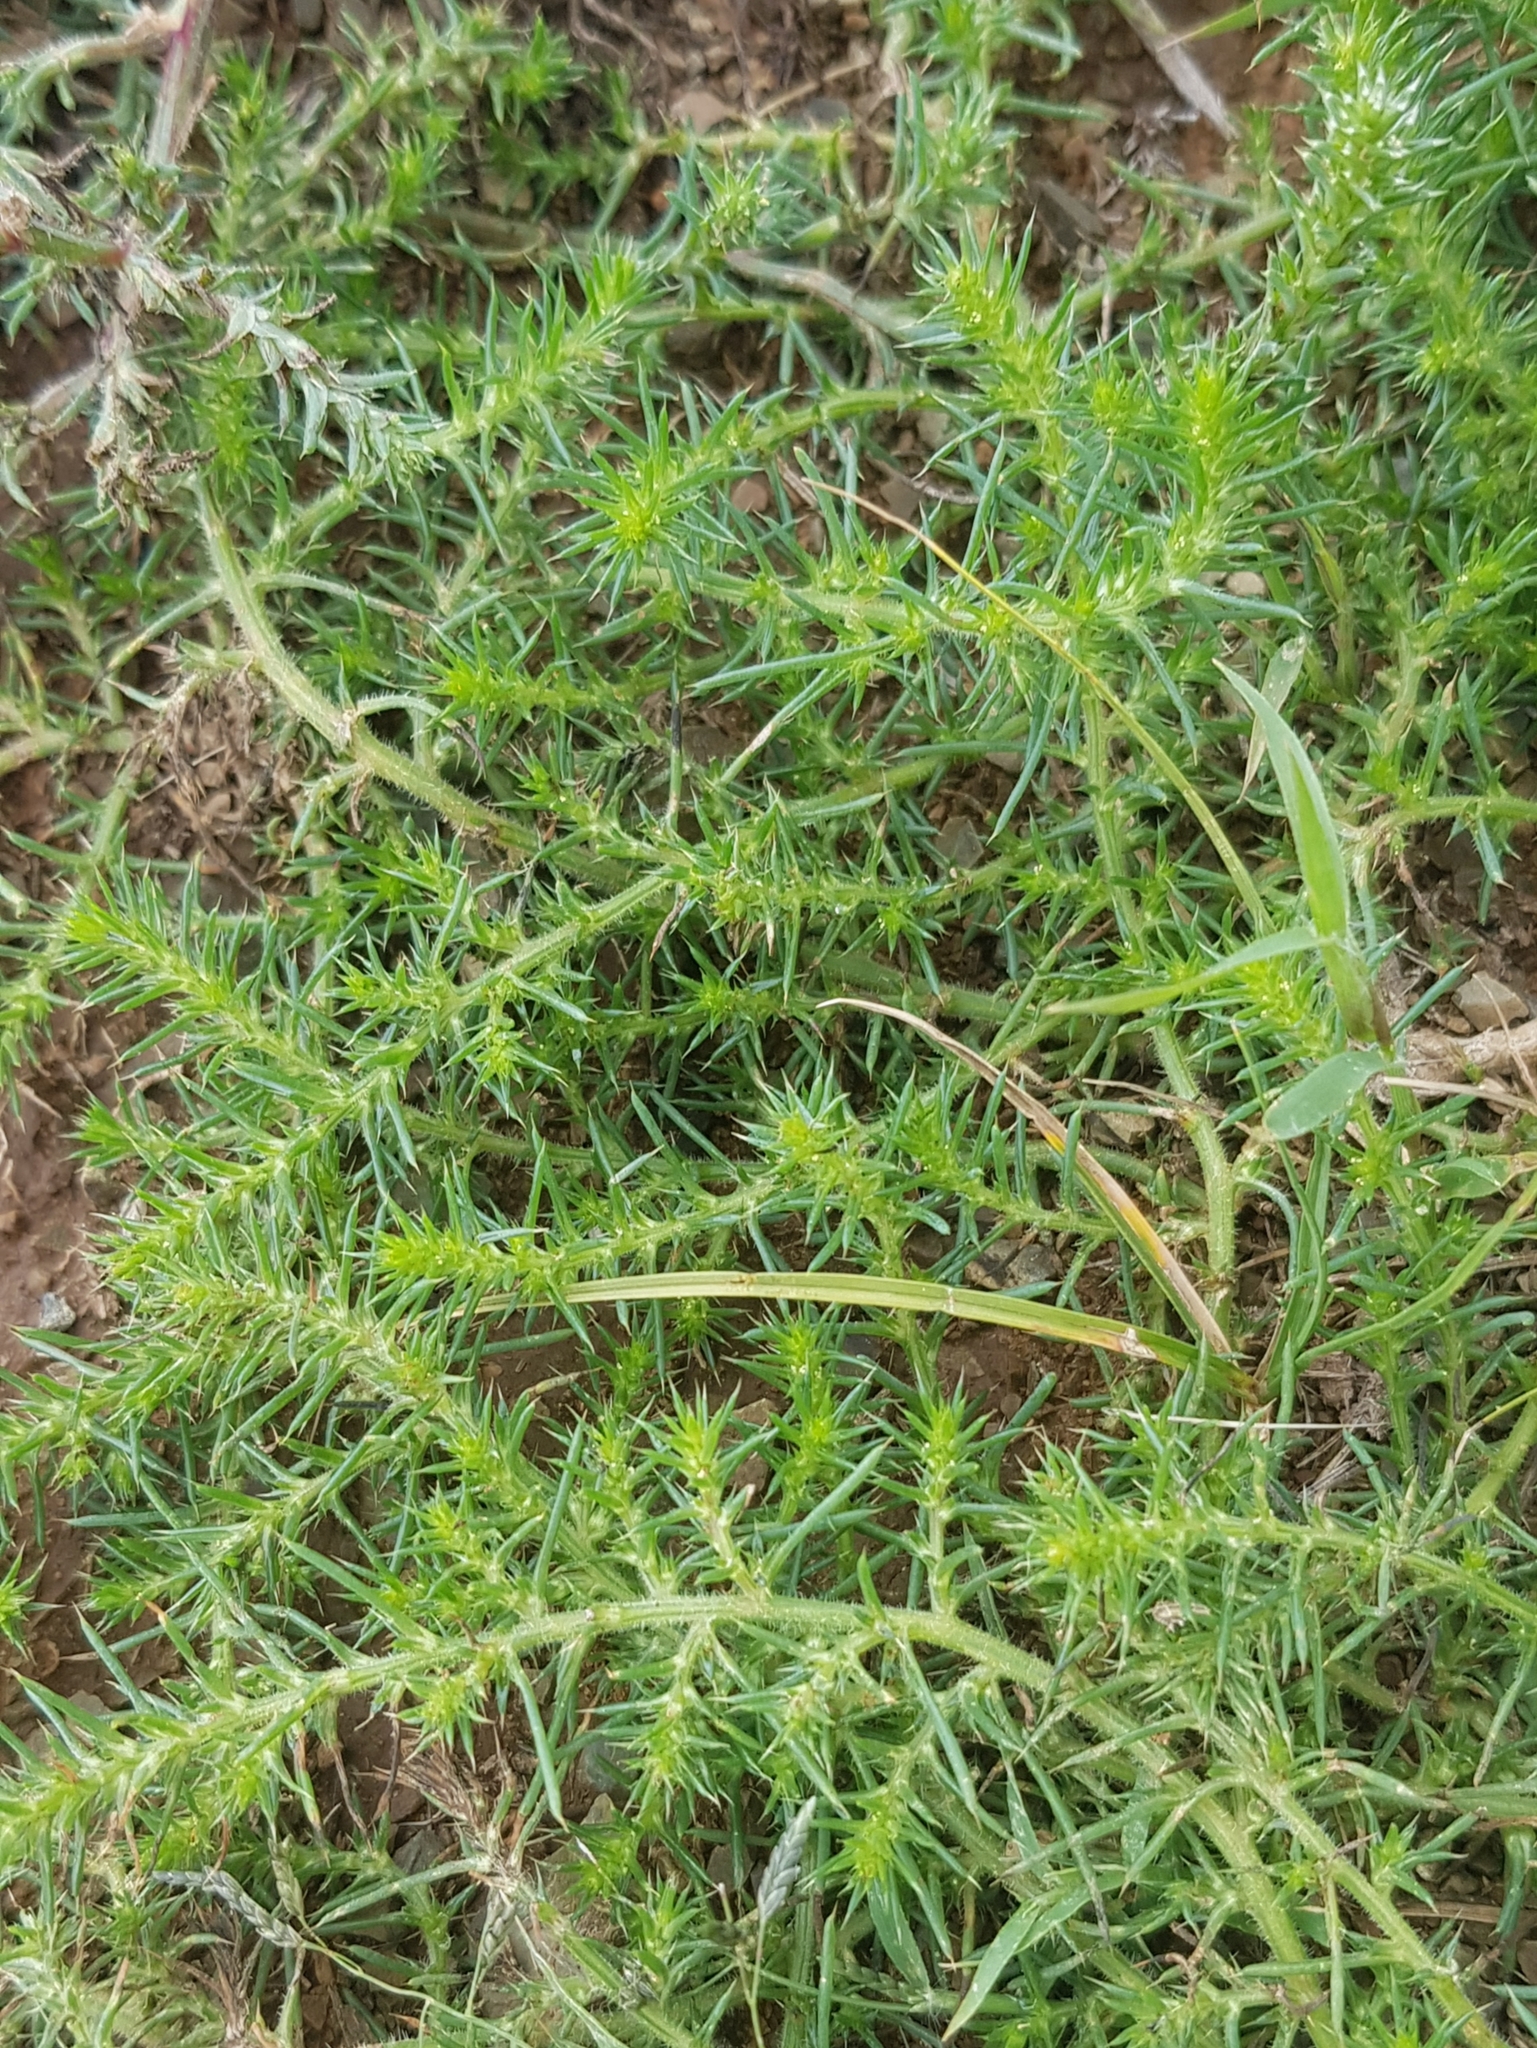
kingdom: Plantae
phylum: Tracheophyta
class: Magnoliopsida
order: Caryophyllales
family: Amaranthaceae
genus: Salsola
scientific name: Salsola collina
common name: Tumbleweed
